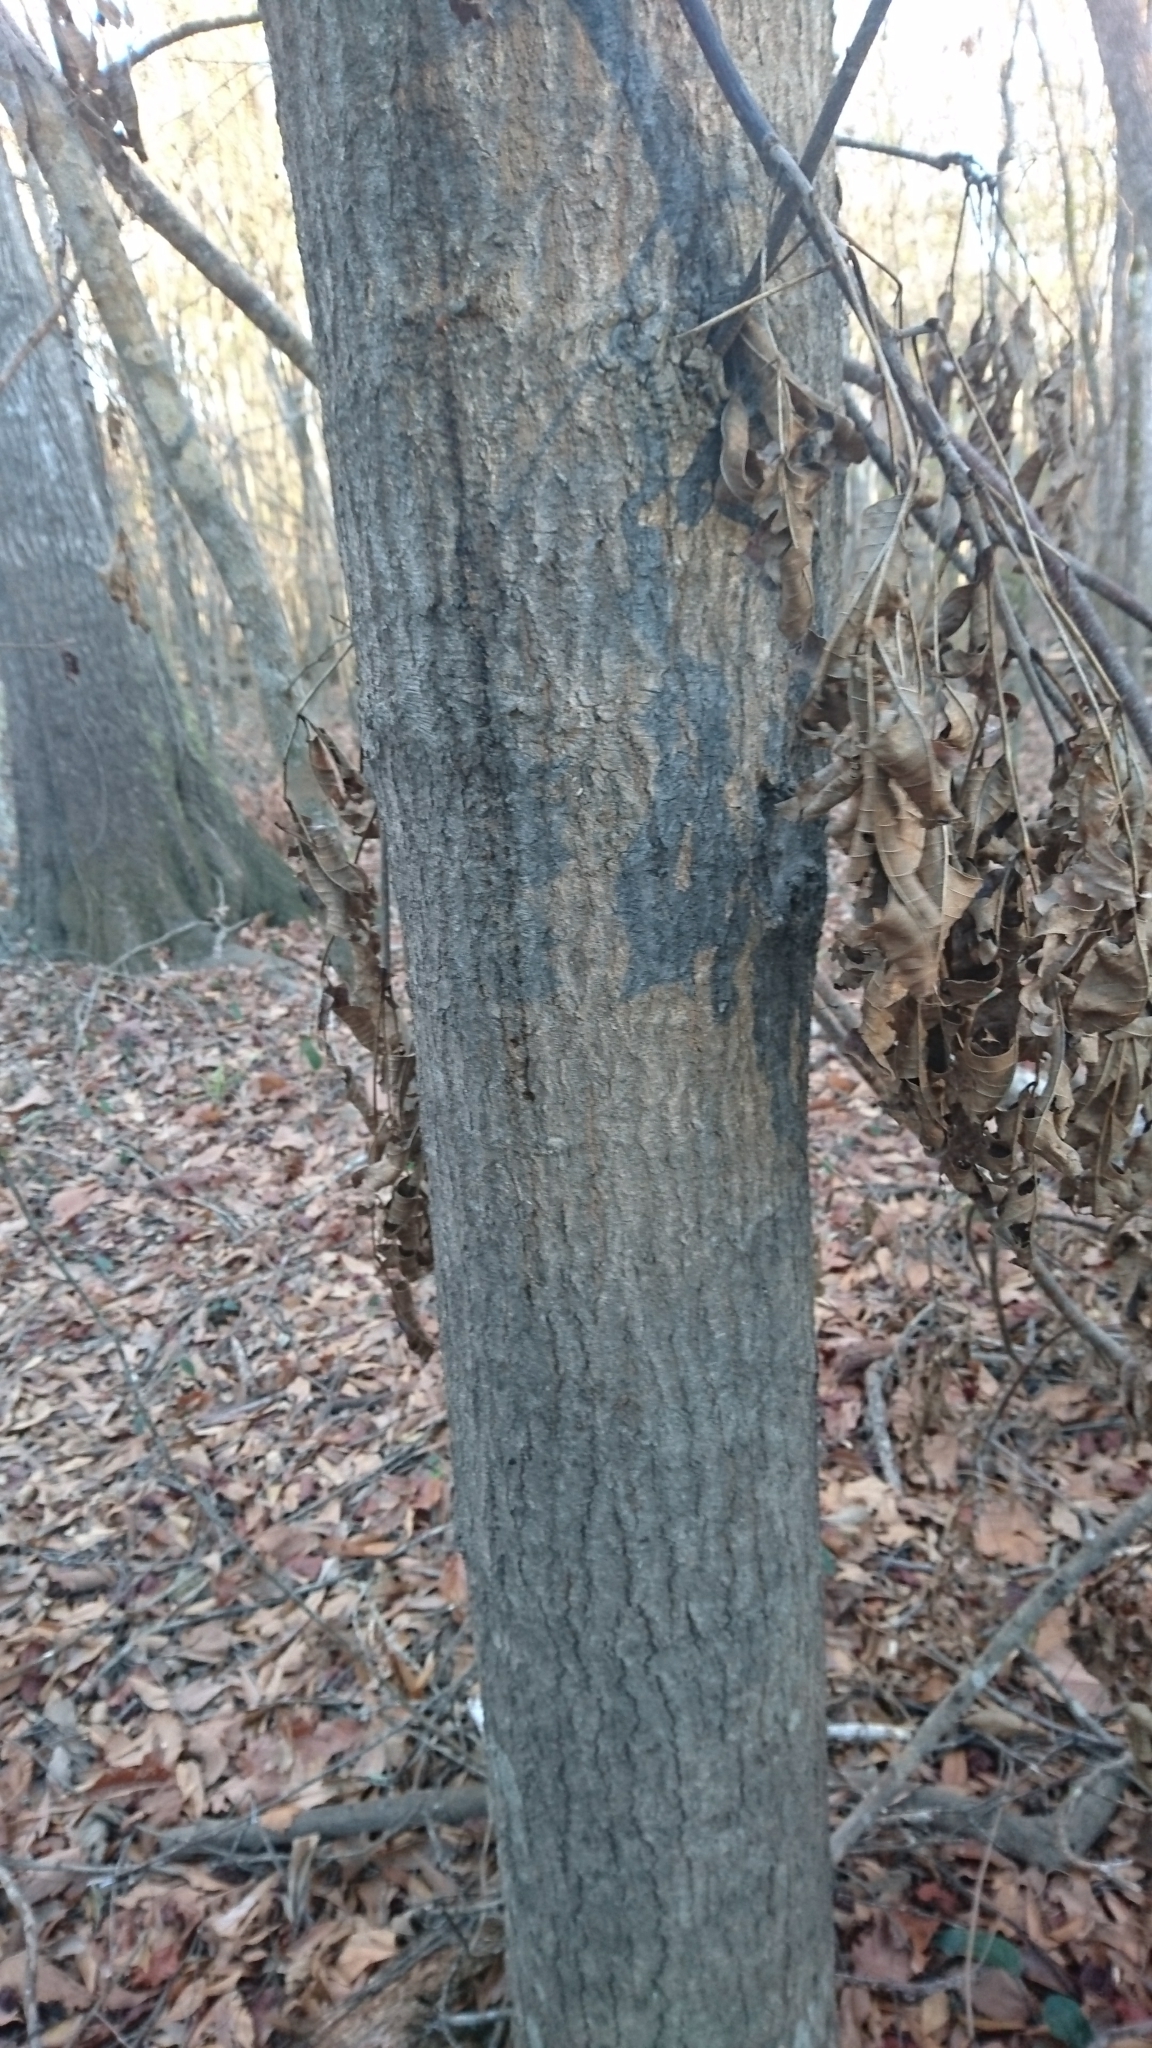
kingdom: Plantae
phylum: Tracheophyta
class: Magnoliopsida
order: Fagales
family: Fagaceae
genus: Quercus
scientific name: Quercus nigra
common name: Water oak
